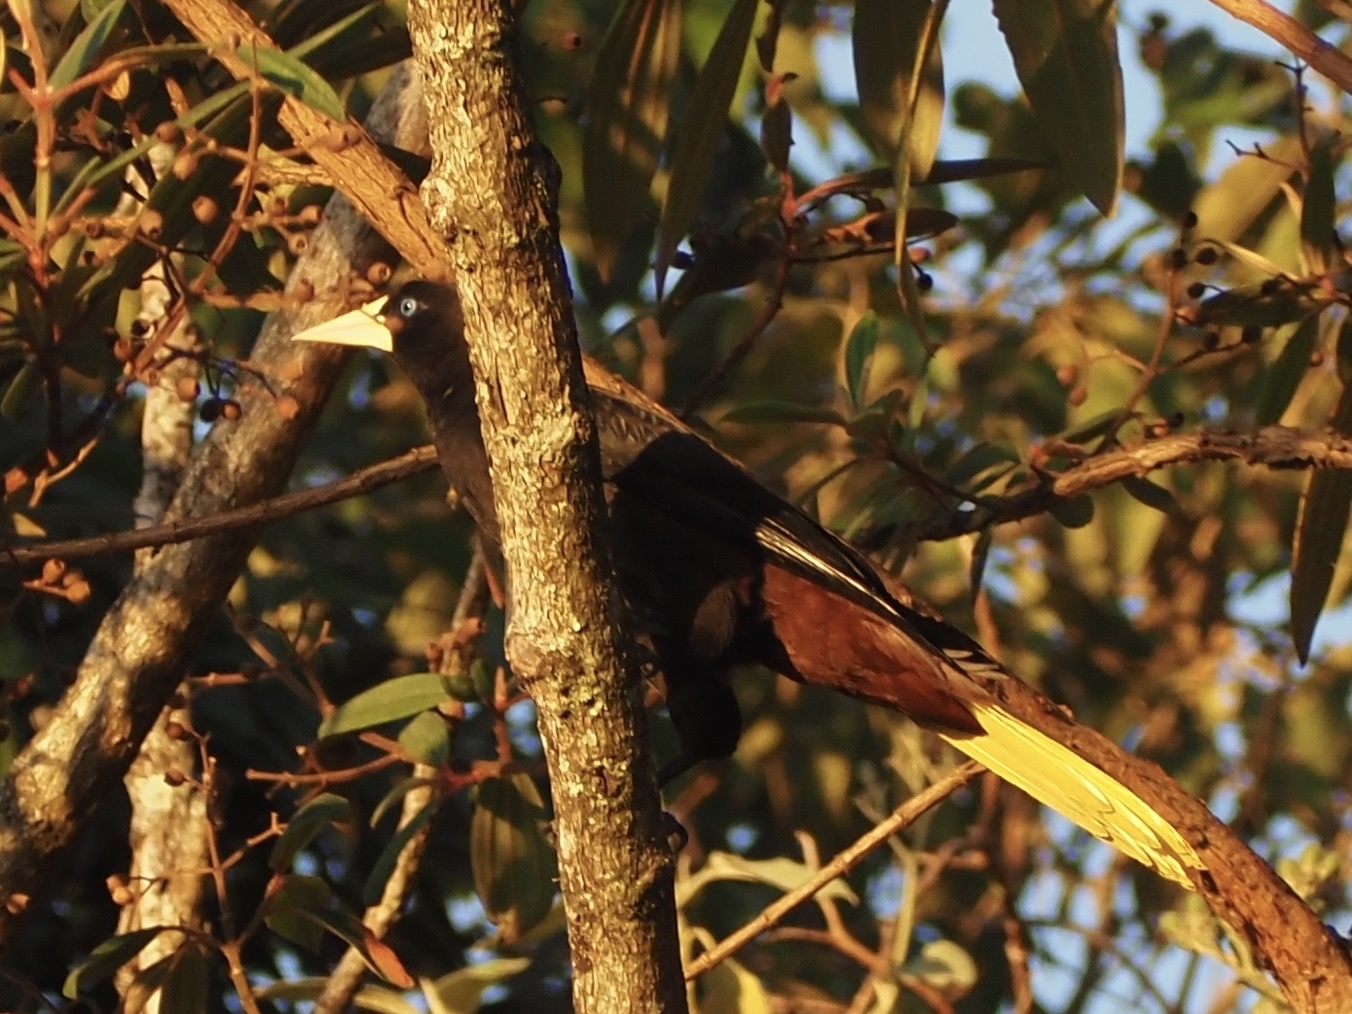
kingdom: Animalia
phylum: Chordata
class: Aves
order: Passeriformes
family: Icteridae
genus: Psarocolius
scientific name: Psarocolius decumanus
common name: Crested oropendola
